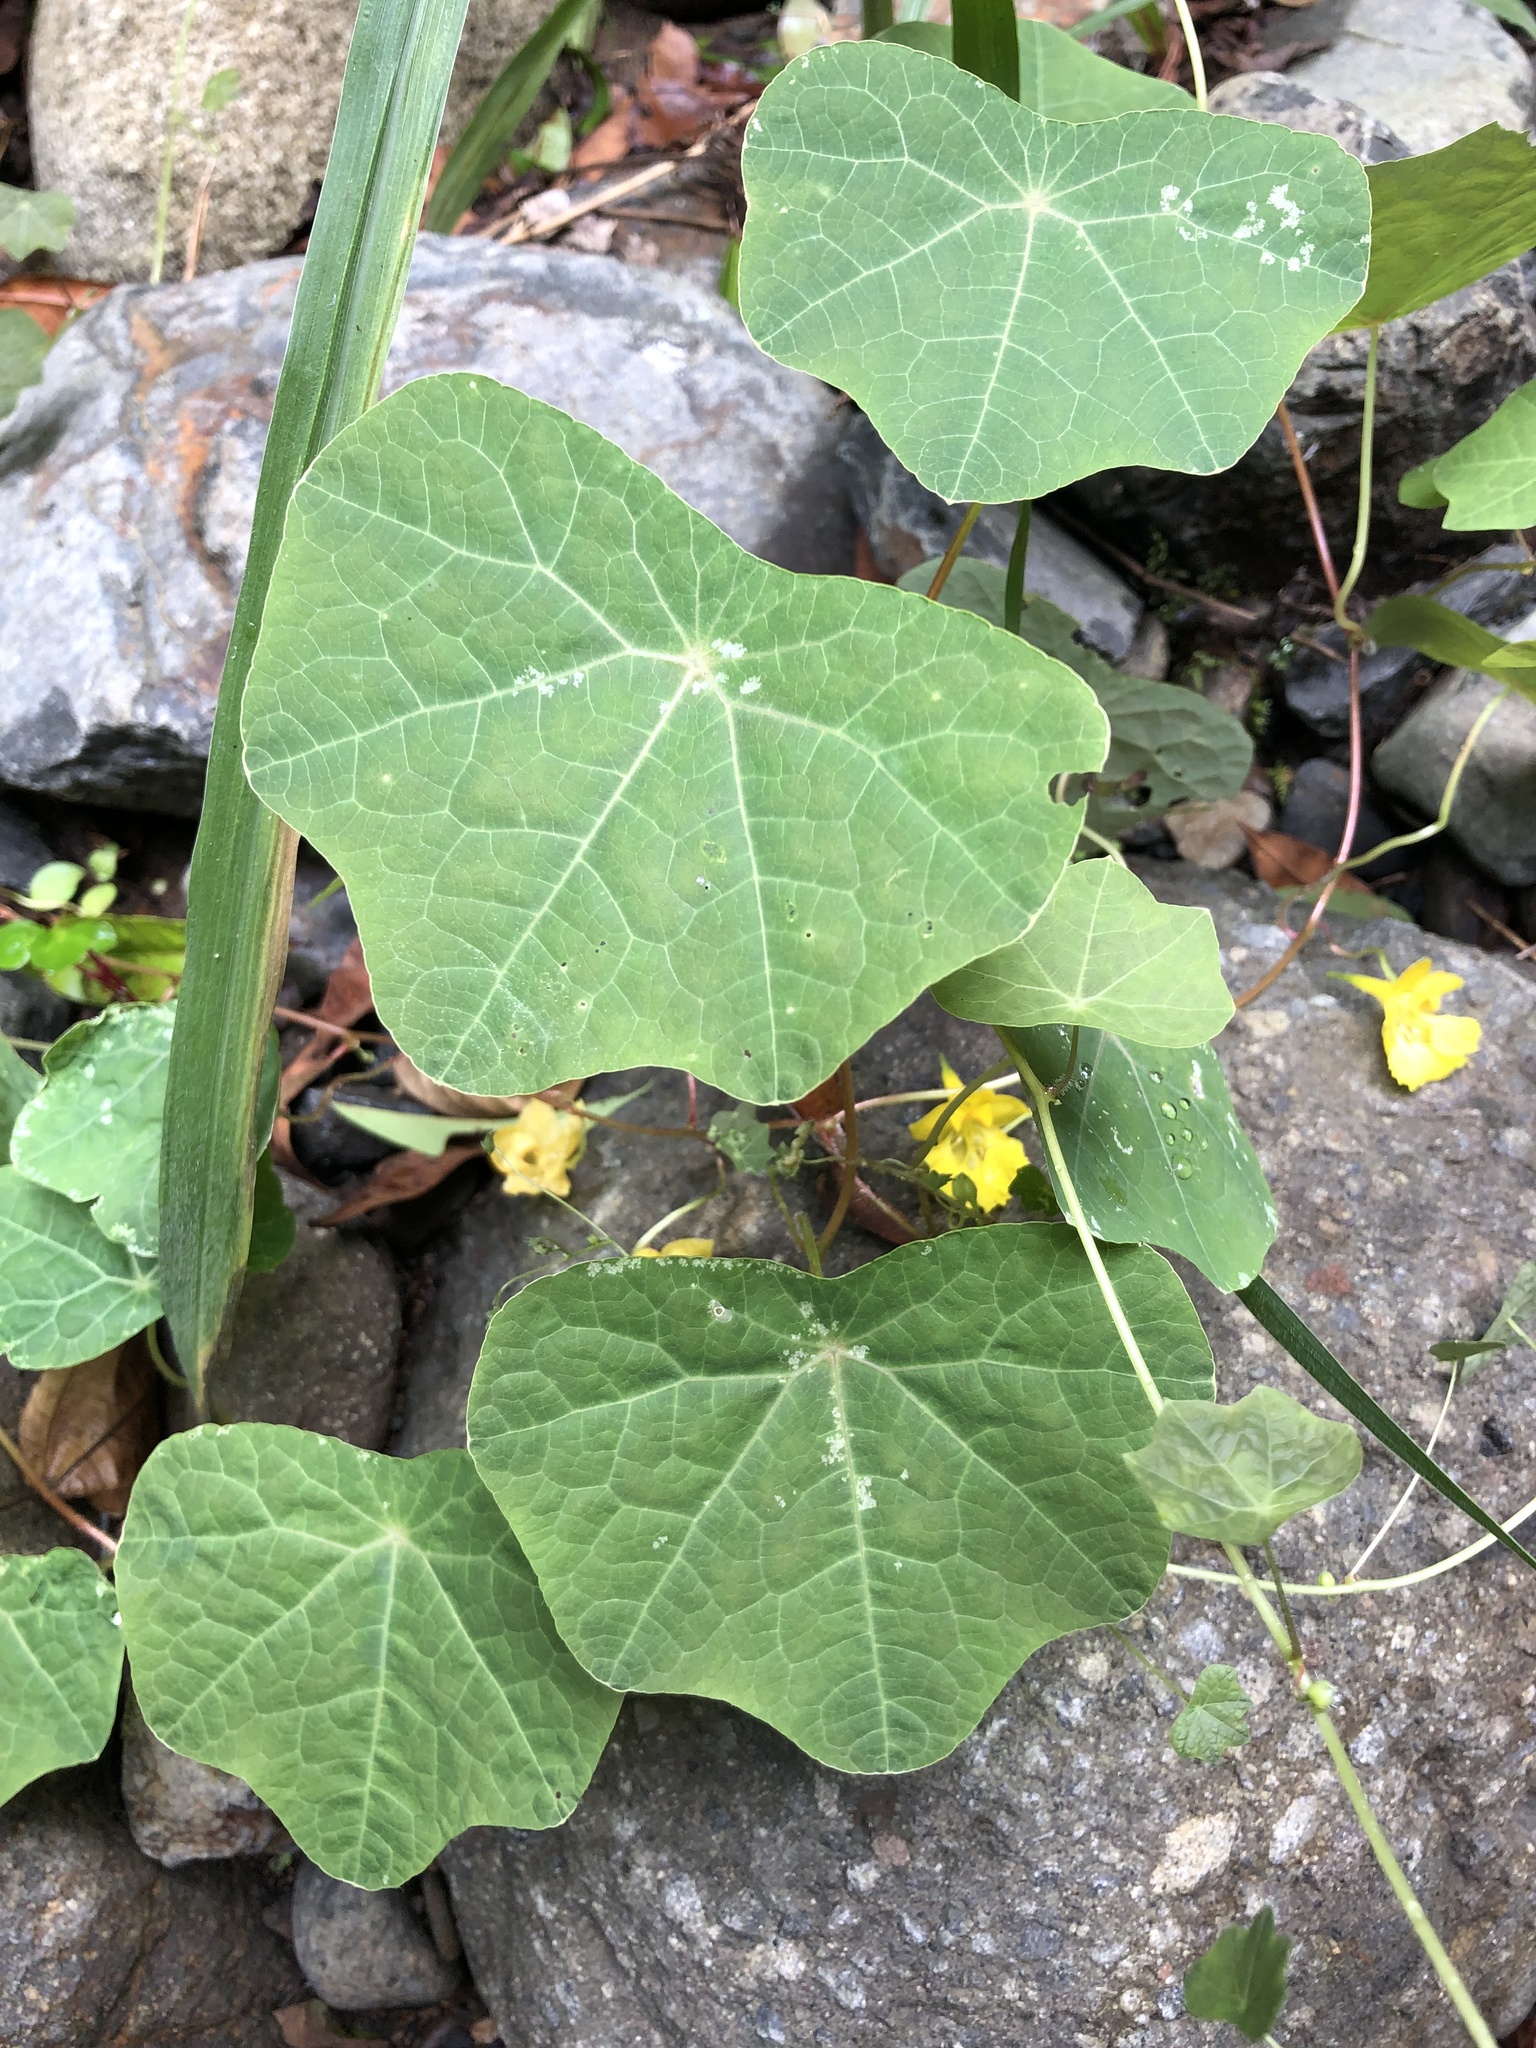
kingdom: Plantae
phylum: Tracheophyta
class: Magnoliopsida
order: Brassicales
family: Tropaeolaceae
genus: Tropaeolum
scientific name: Tropaeolum pendulum
